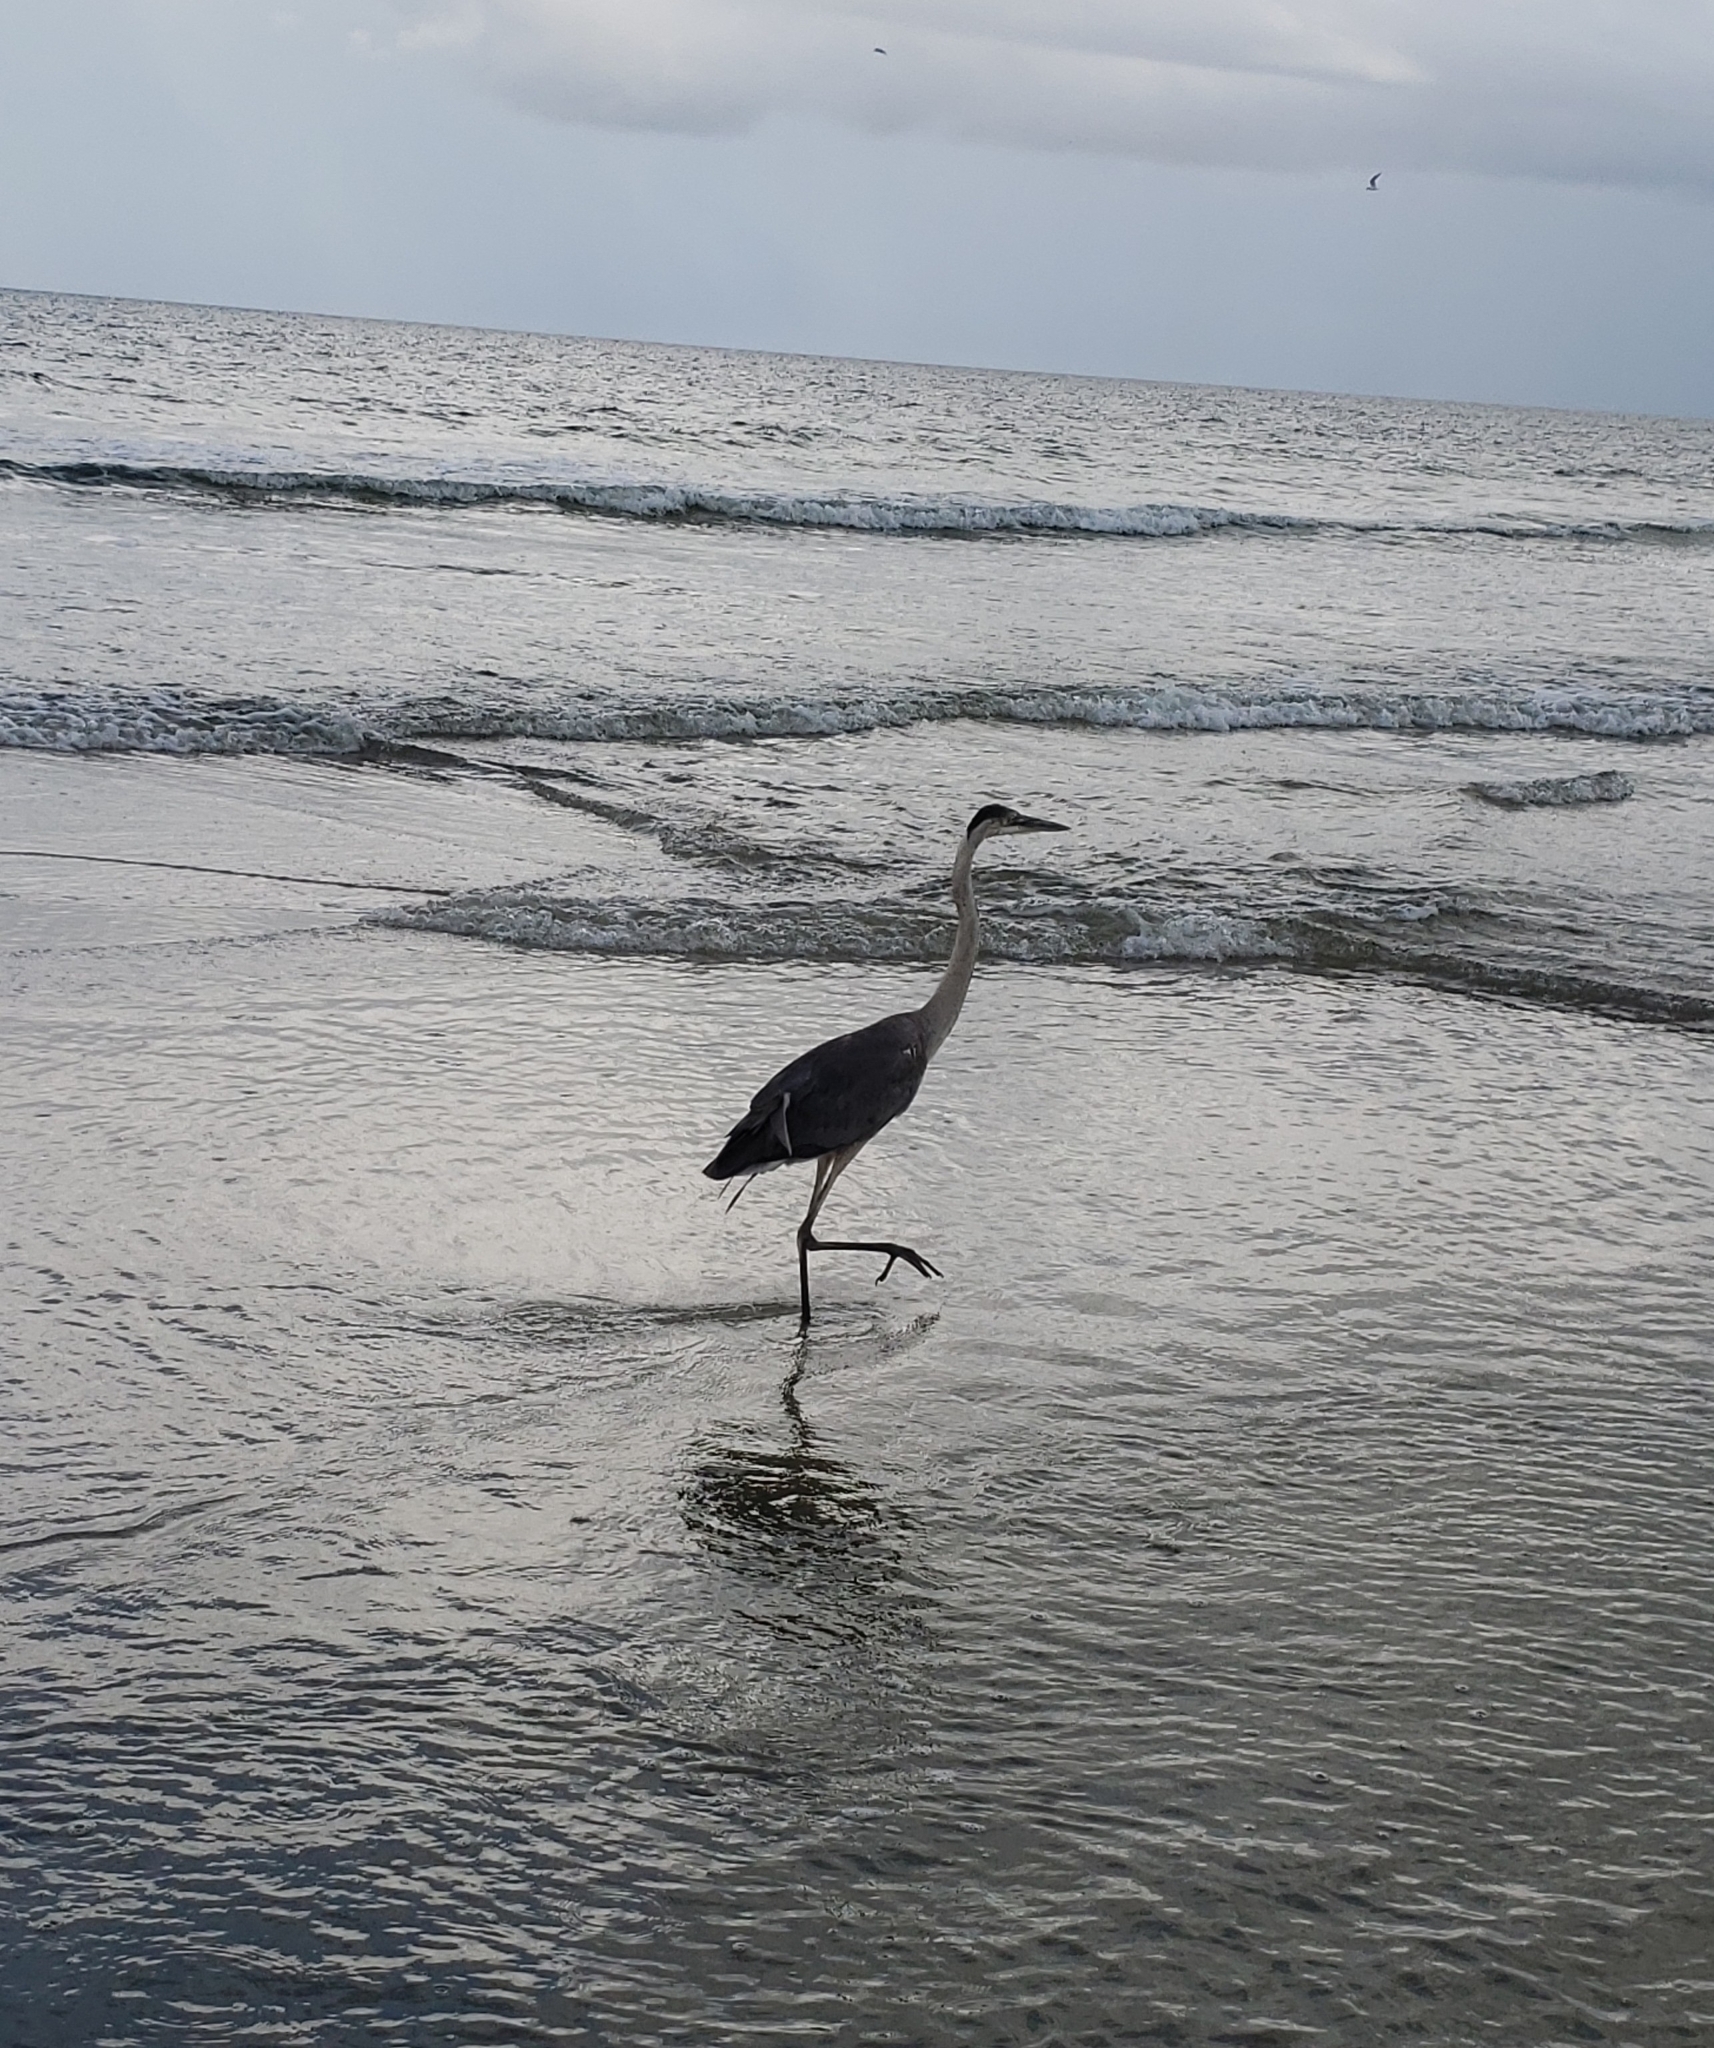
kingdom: Animalia
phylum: Chordata
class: Aves
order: Pelecaniformes
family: Ardeidae
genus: Ardea
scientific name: Ardea herodias
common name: Great blue heron
